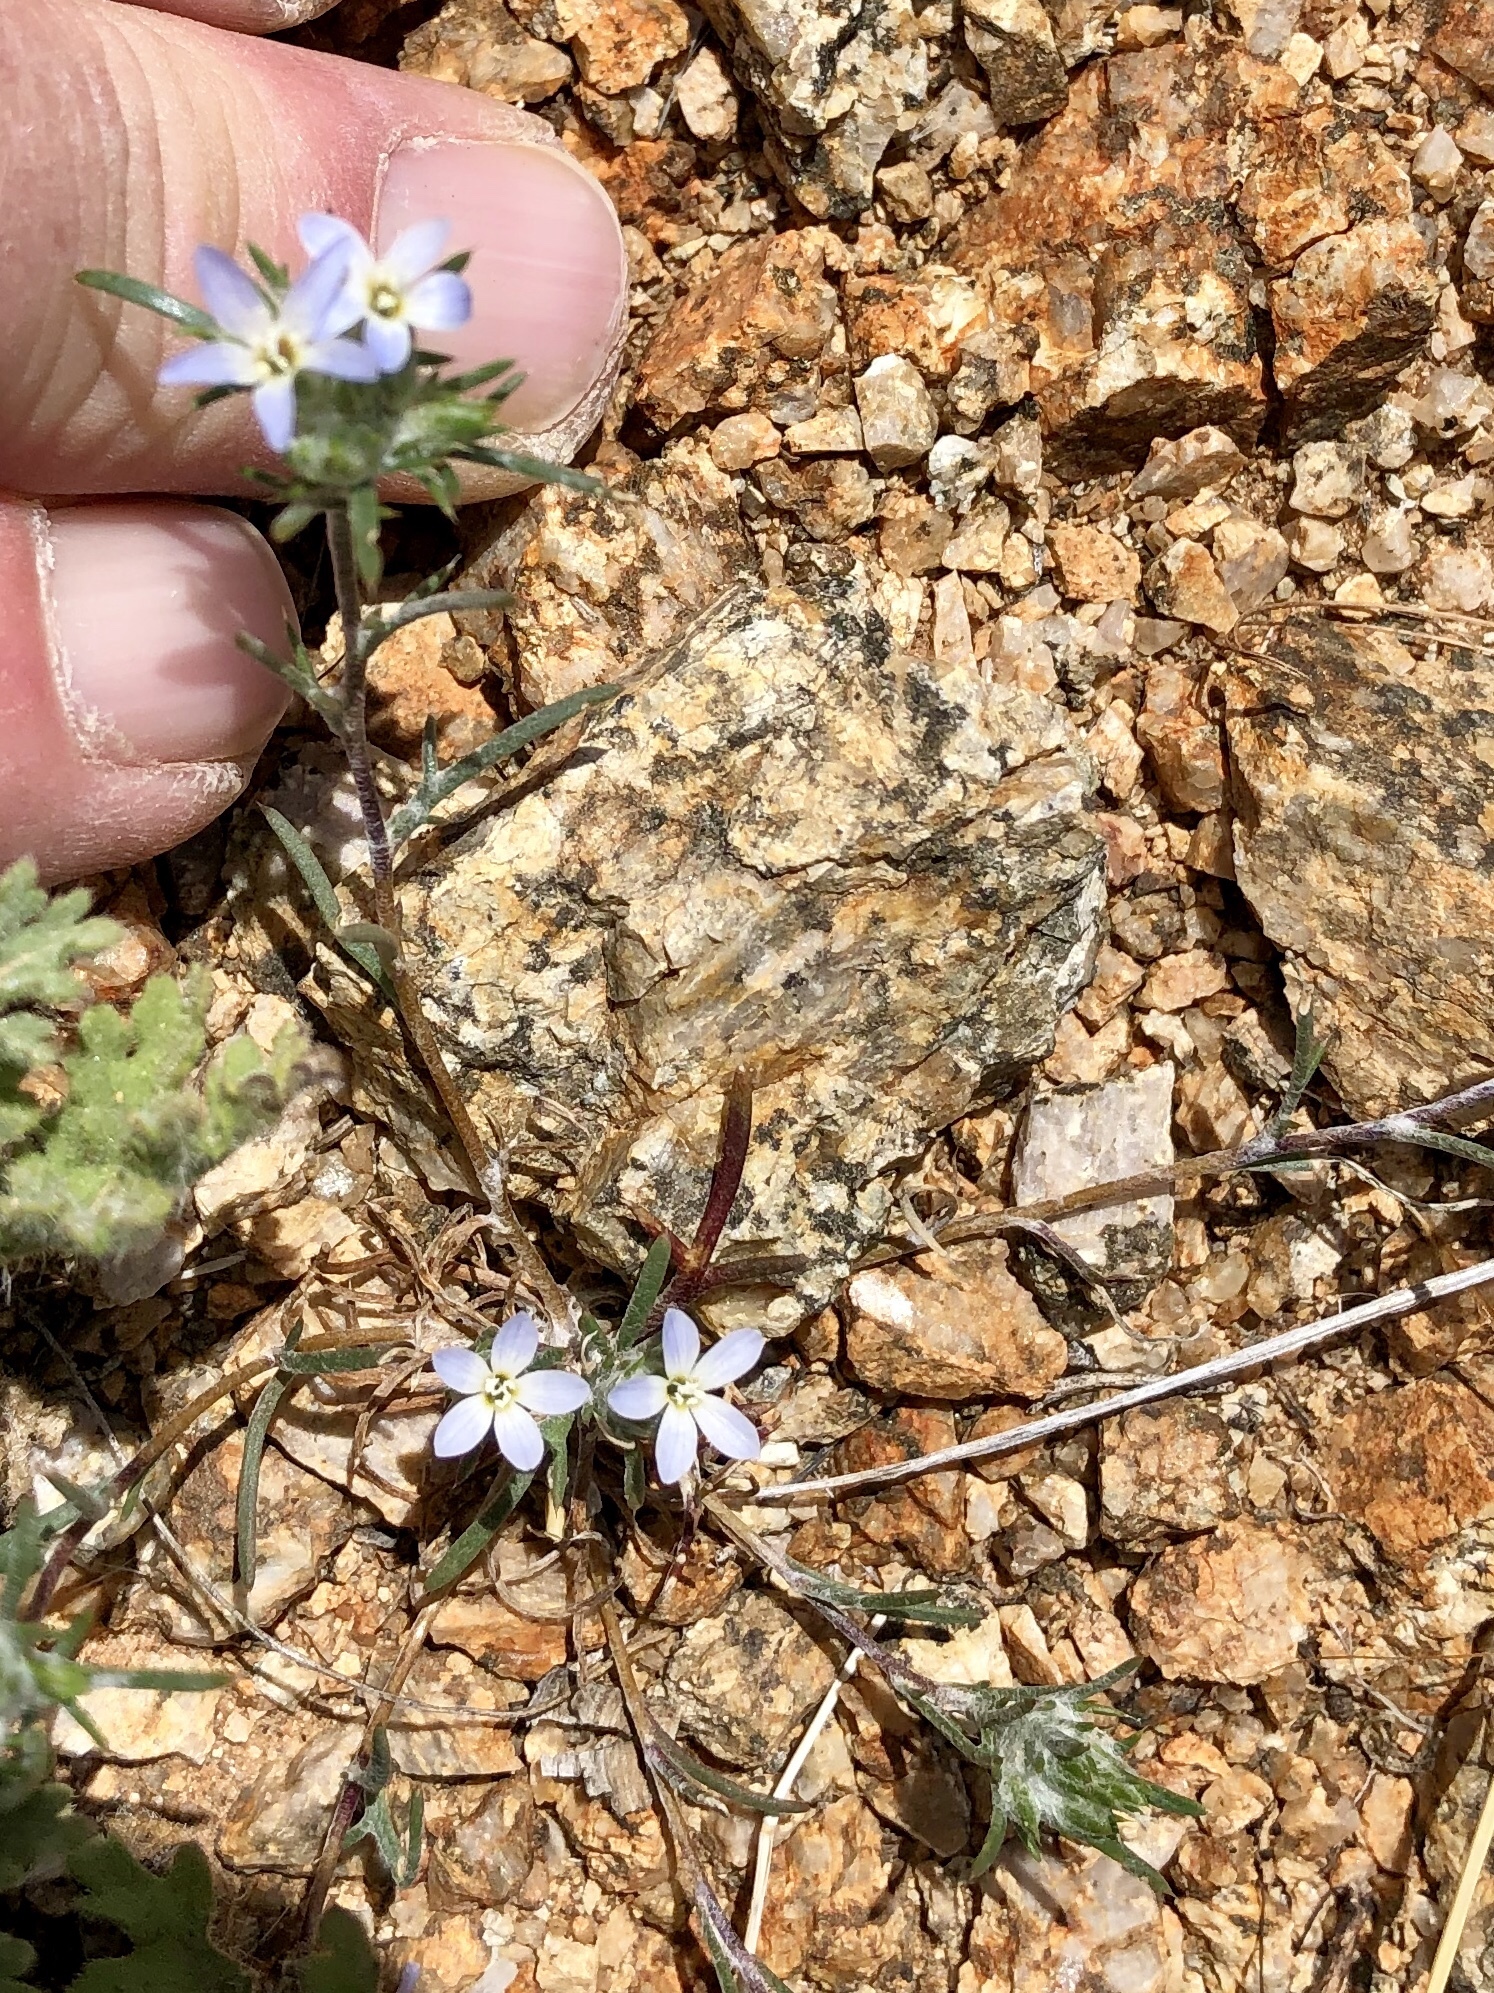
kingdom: Plantae
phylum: Tracheophyta
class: Magnoliopsida
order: Ericales
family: Polemoniaceae
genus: Eriastrum
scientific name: Eriastrum diffusum
